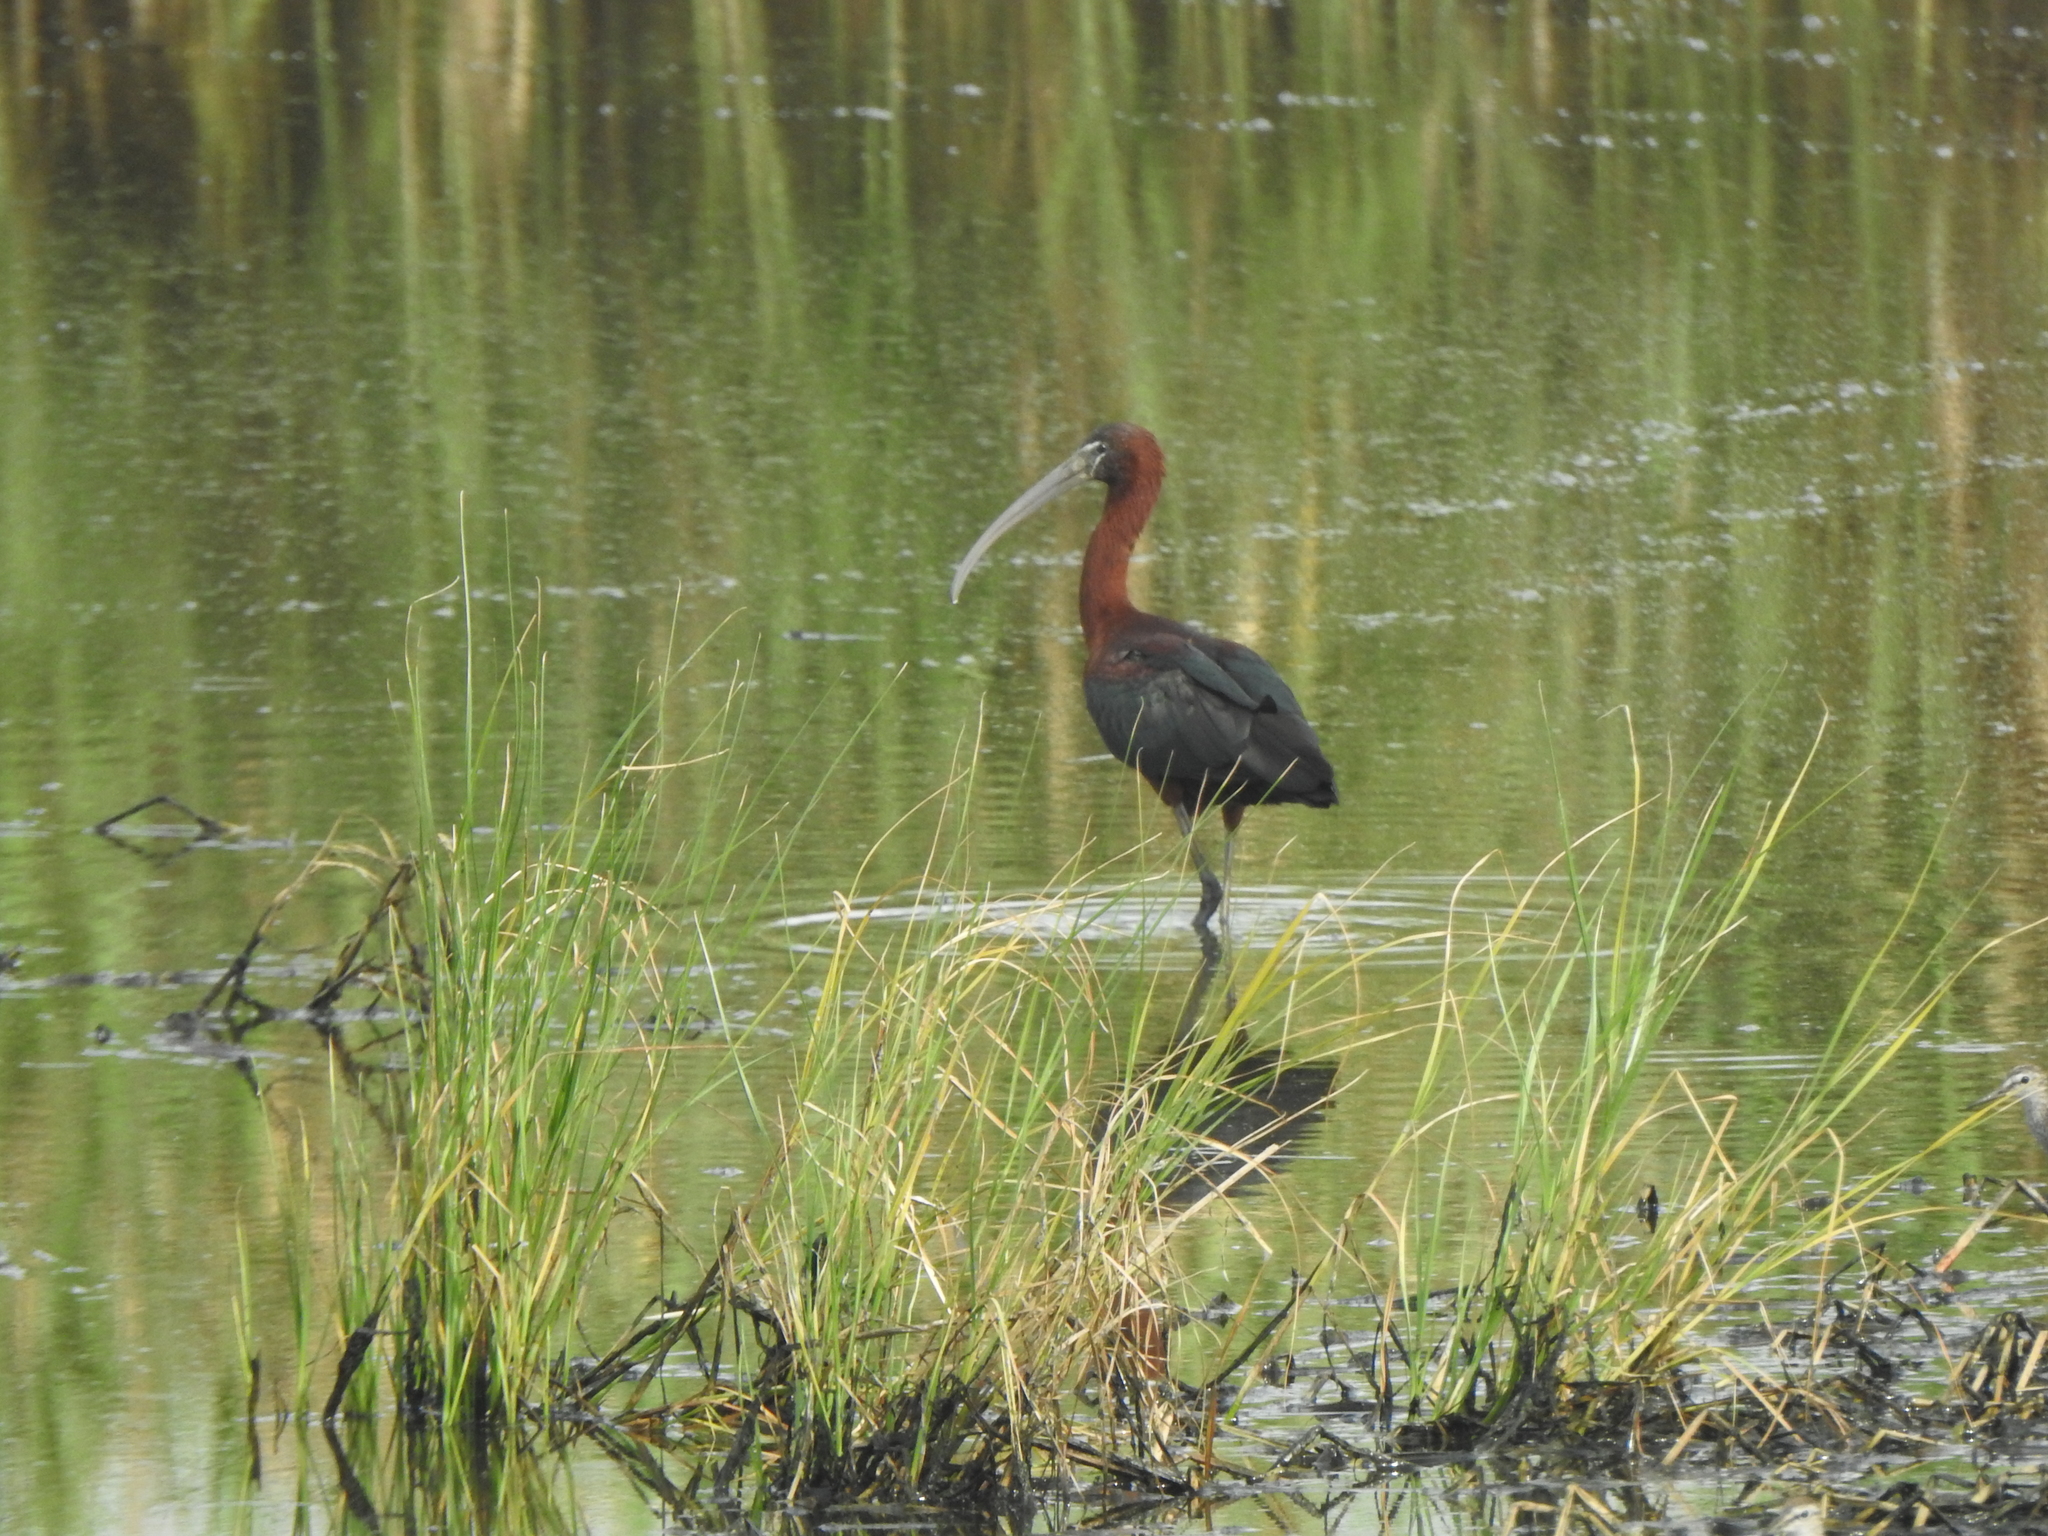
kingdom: Animalia
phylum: Chordata
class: Aves
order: Pelecaniformes
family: Threskiornithidae
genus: Plegadis
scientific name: Plegadis falcinellus
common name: Glossy ibis
